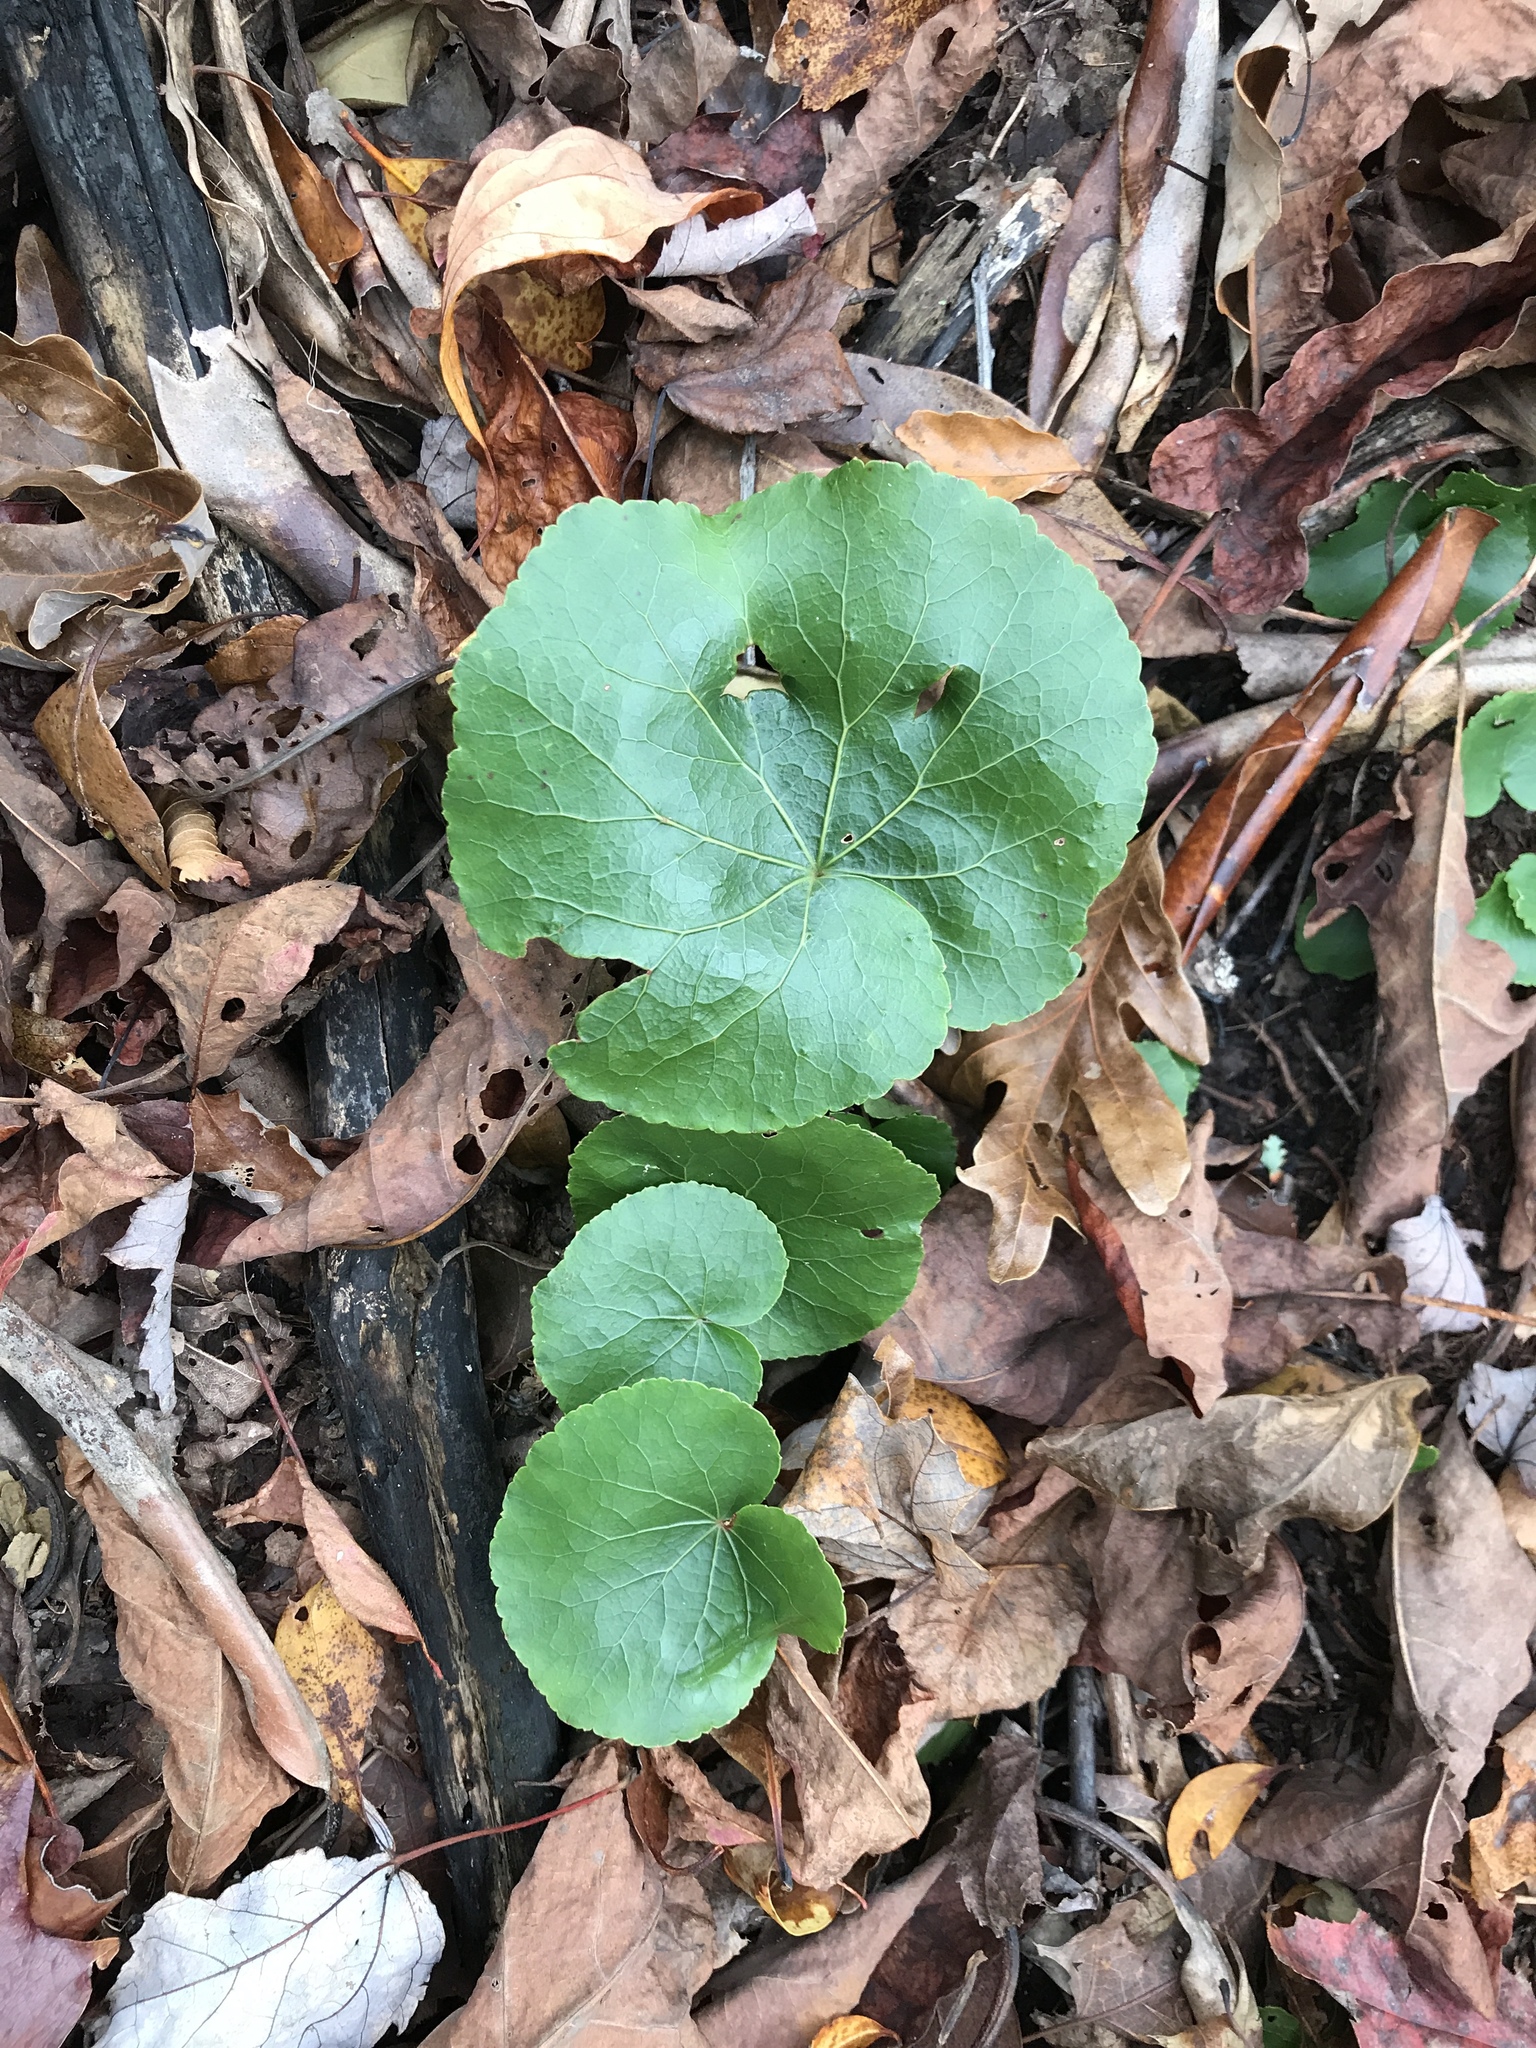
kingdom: Plantae
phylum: Tracheophyta
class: Magnoliopsida
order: Ericales
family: Diapensiaceae
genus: Galax
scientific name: Galax urceolata
